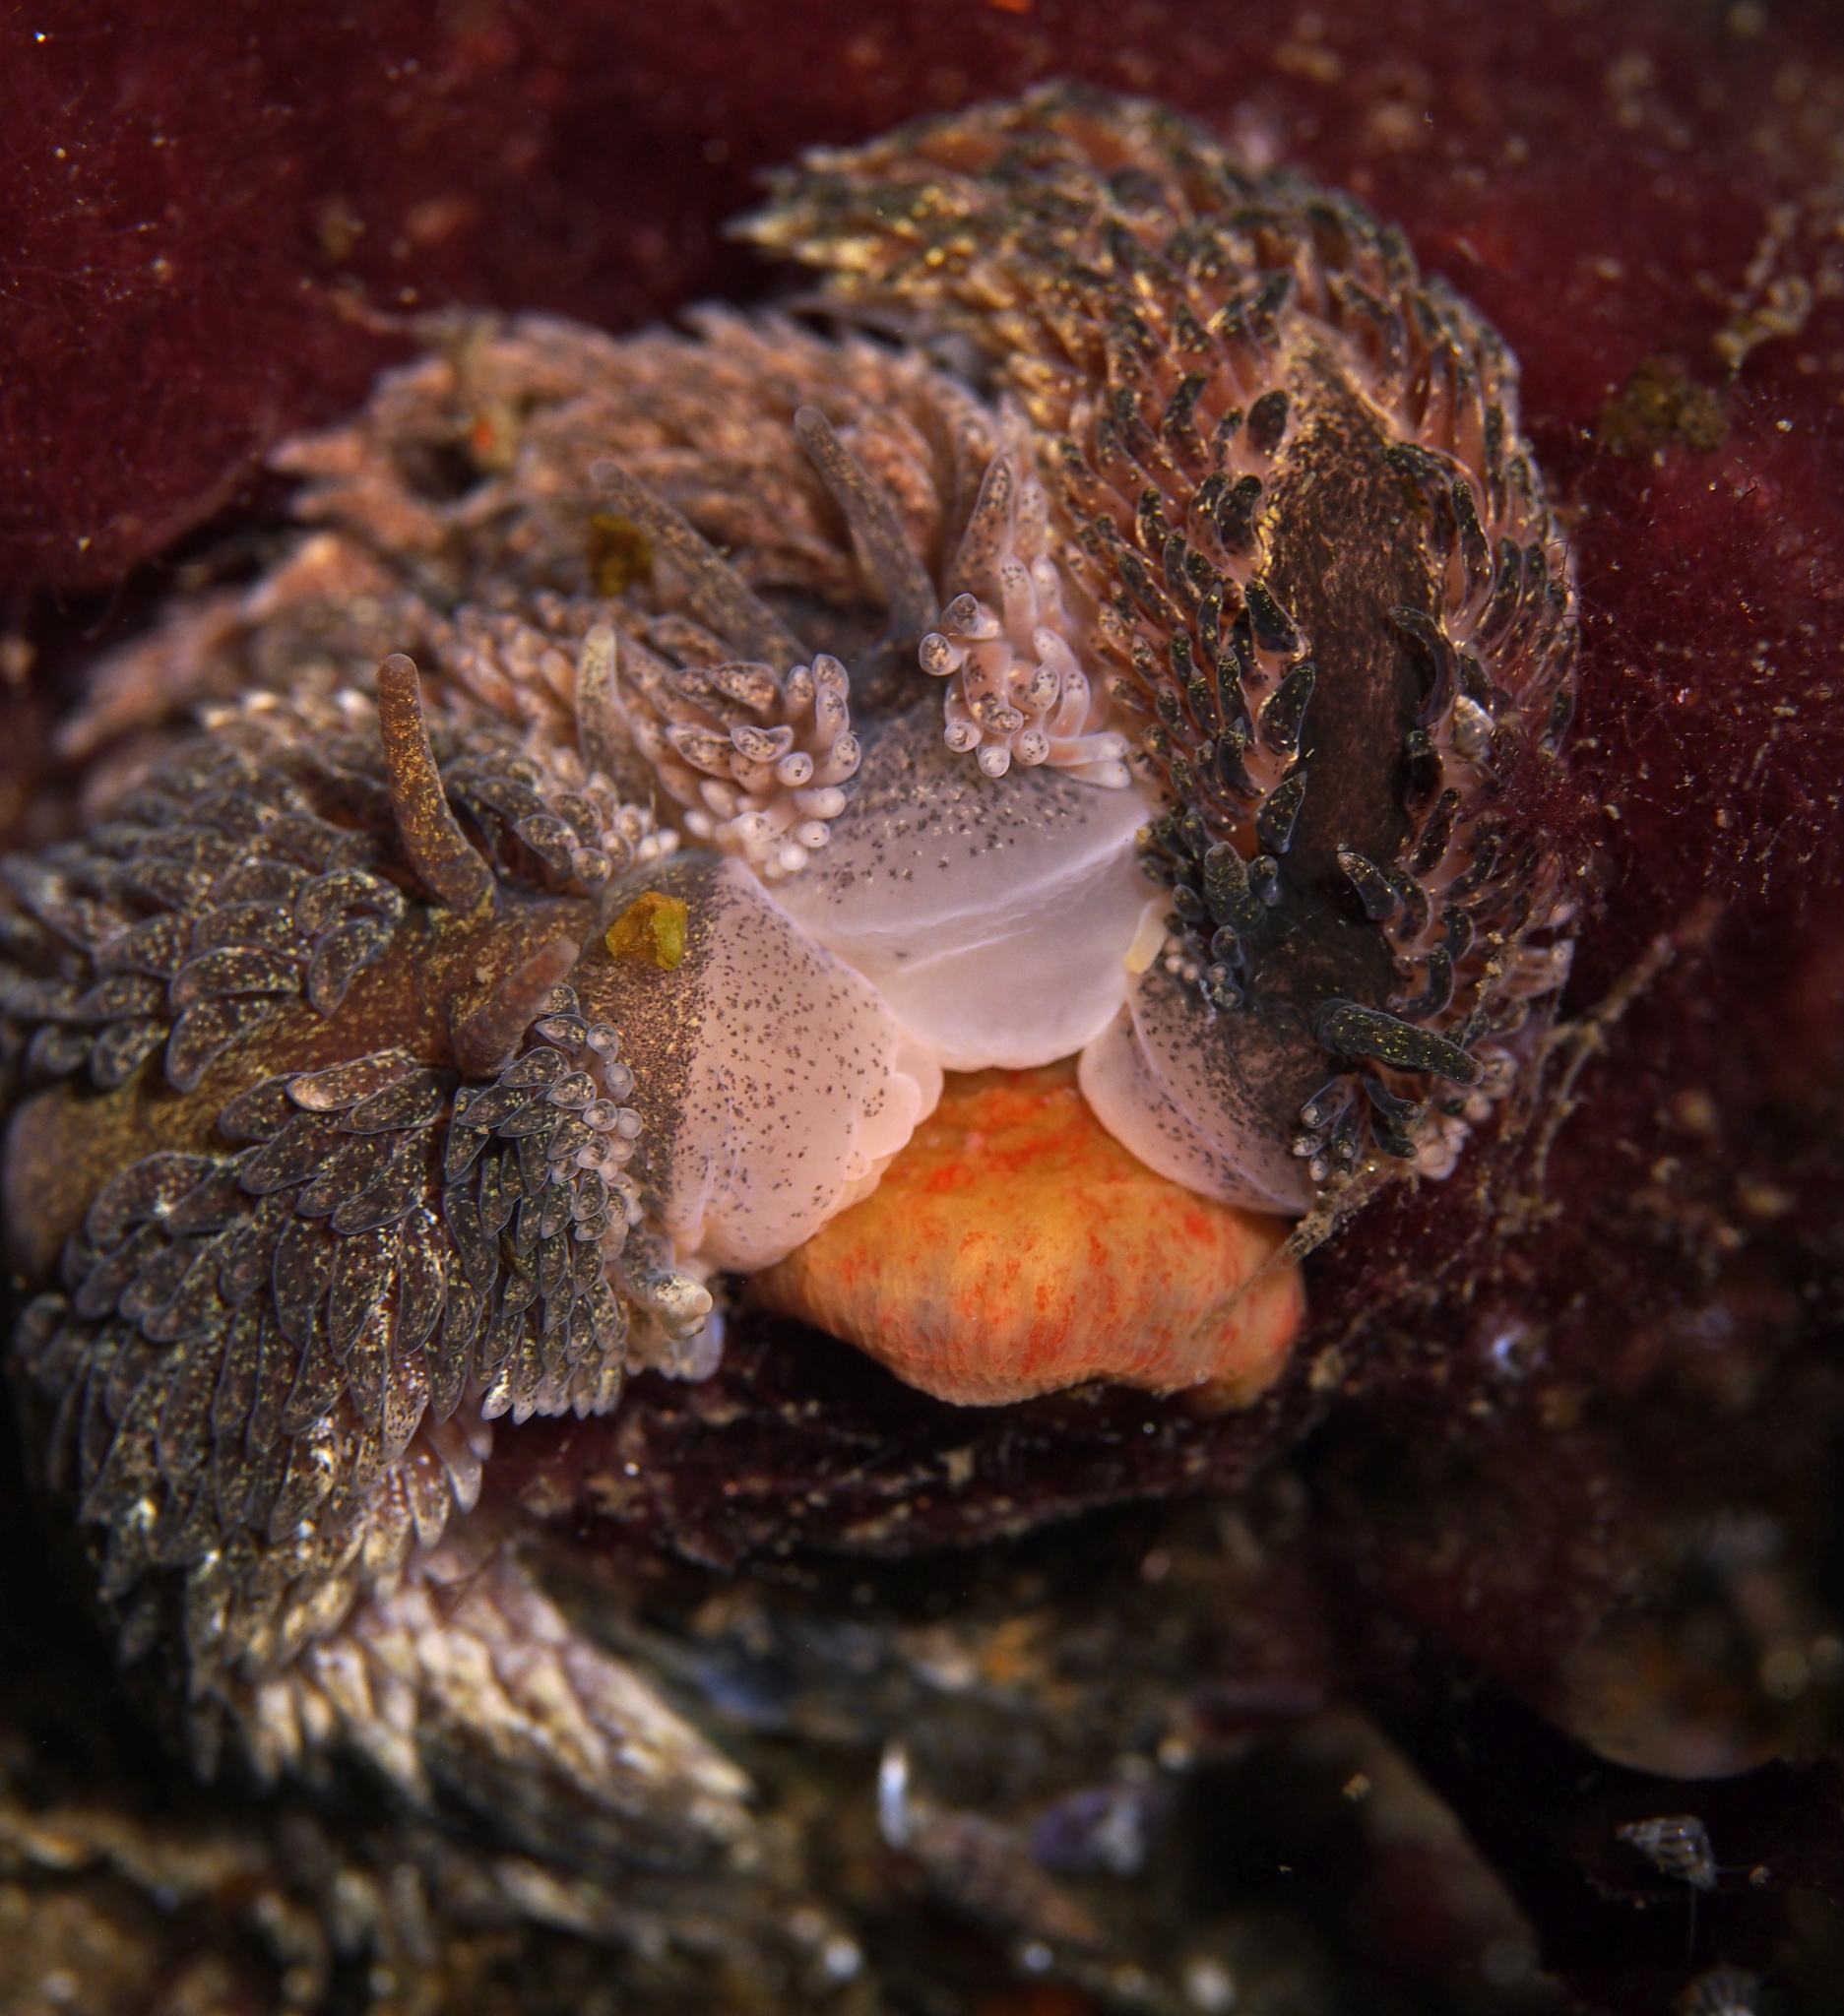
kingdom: Animalia
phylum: Mollusca
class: Gastropoda
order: Nudibranchia
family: Aeolidiidae
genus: Aeolidia
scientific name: Aeolidia papillosa
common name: Common grey sea slug
